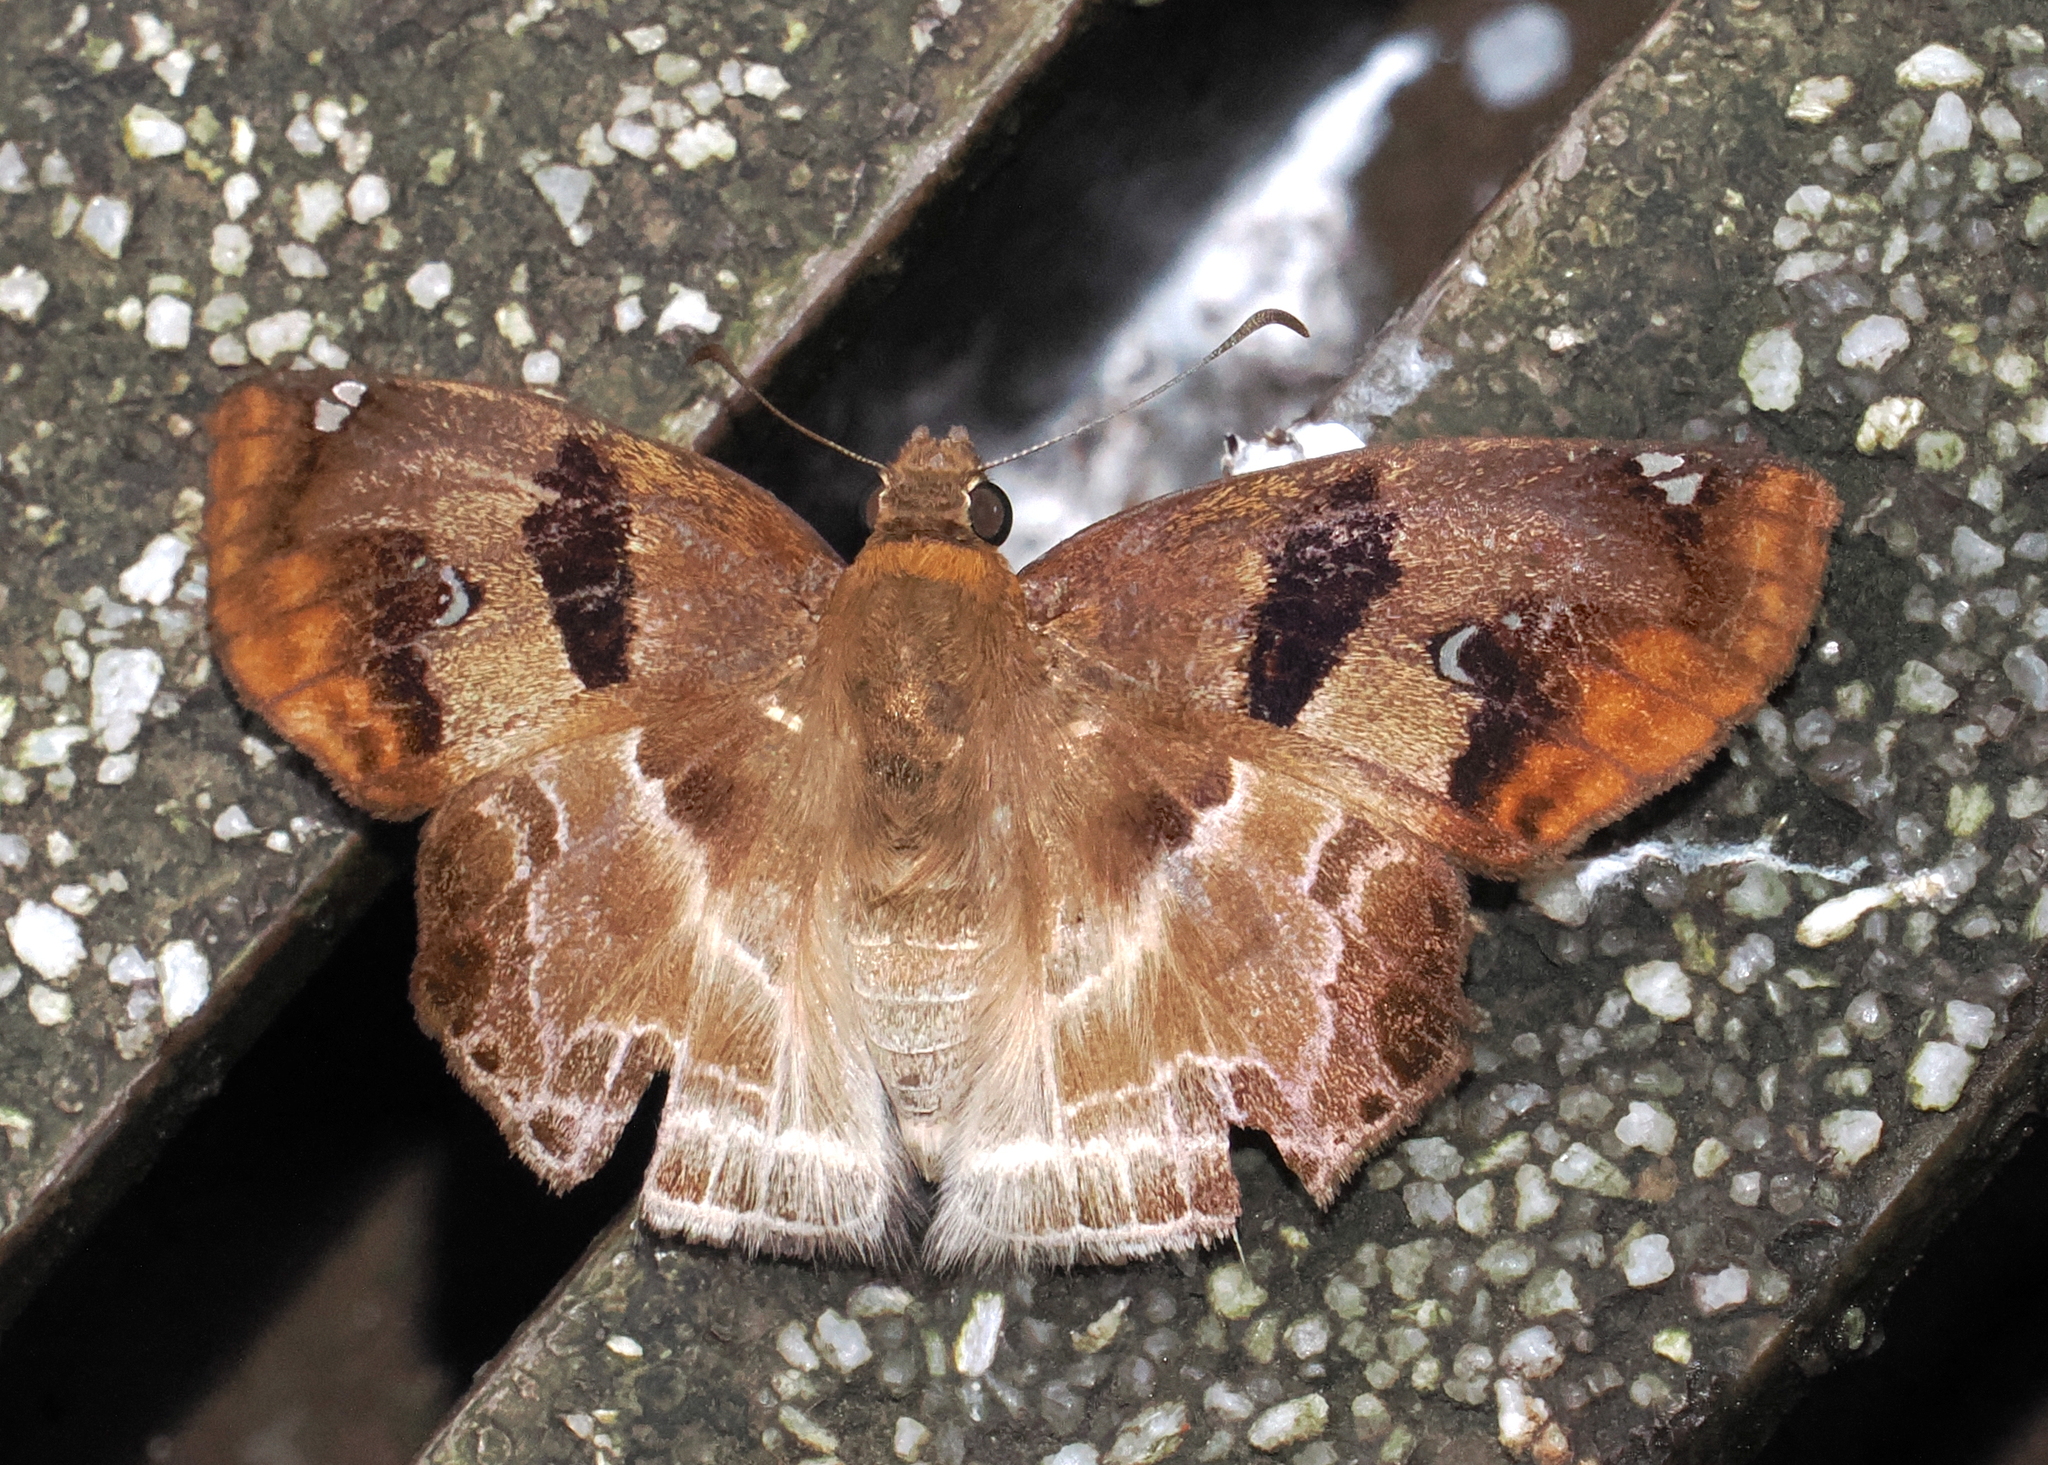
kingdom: Animalia
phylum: Arthropoda
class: Insecta
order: Lepidoptera
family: Hesperiidae
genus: Odontoptilum
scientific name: Odontoptilum angulata
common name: Chestnut banded angle
